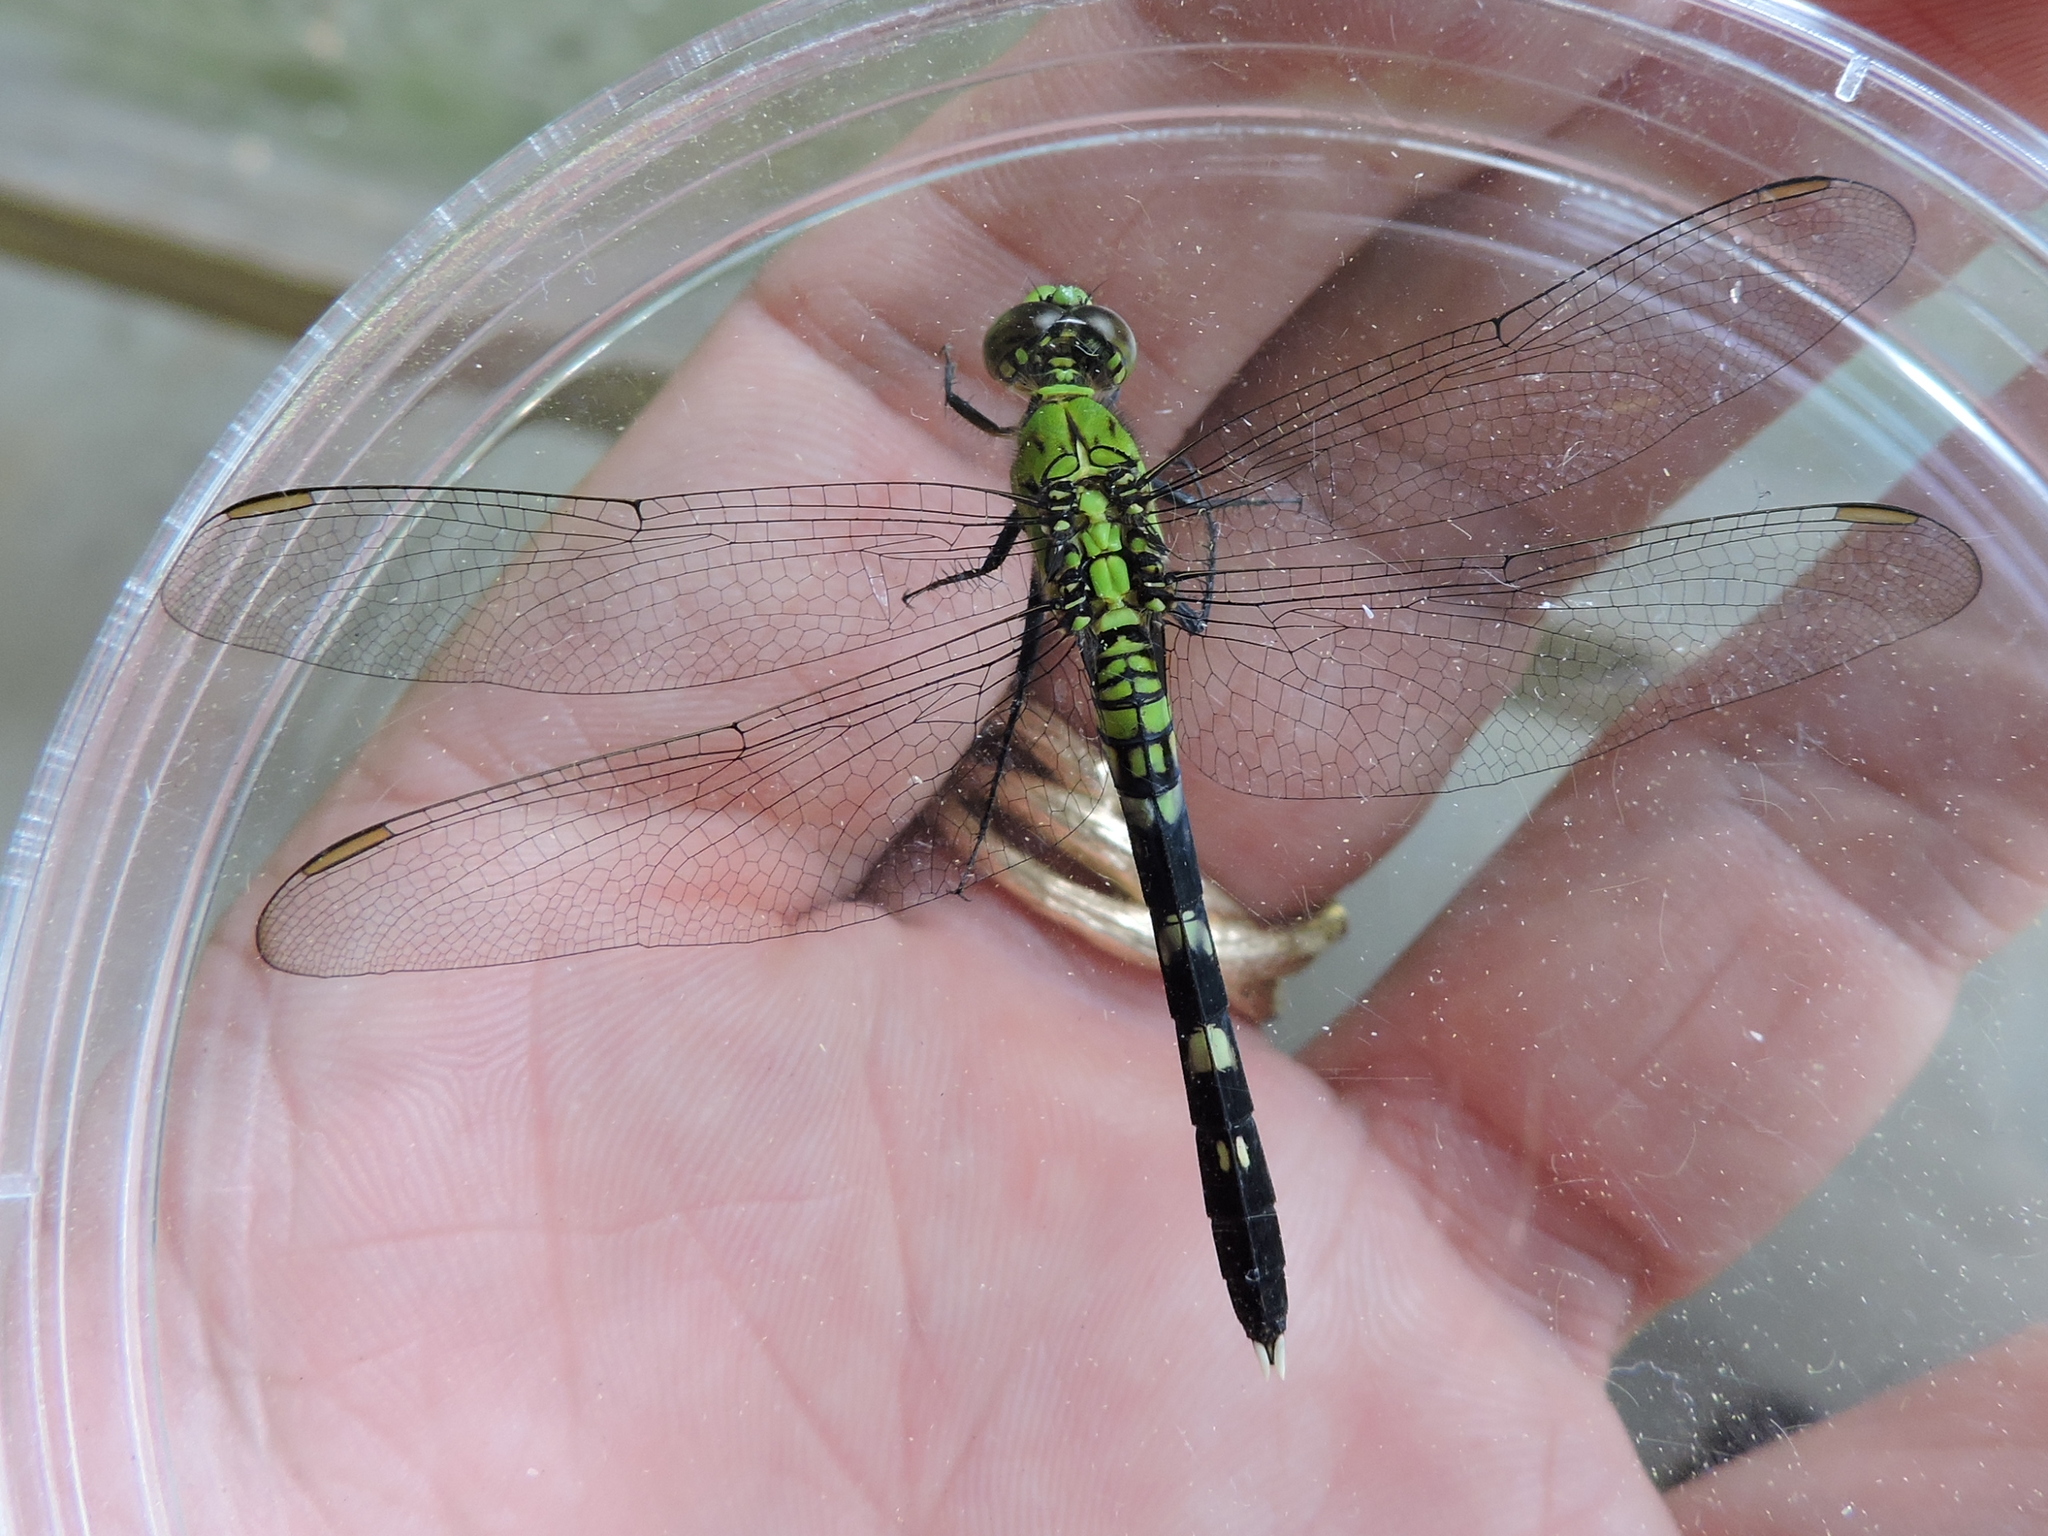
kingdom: Animalia
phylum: Arthropoda
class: Insecta
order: Odonata
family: Libellulidae
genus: Erythemis
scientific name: Erythemis simplicicollis
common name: Eastern pondhawk
